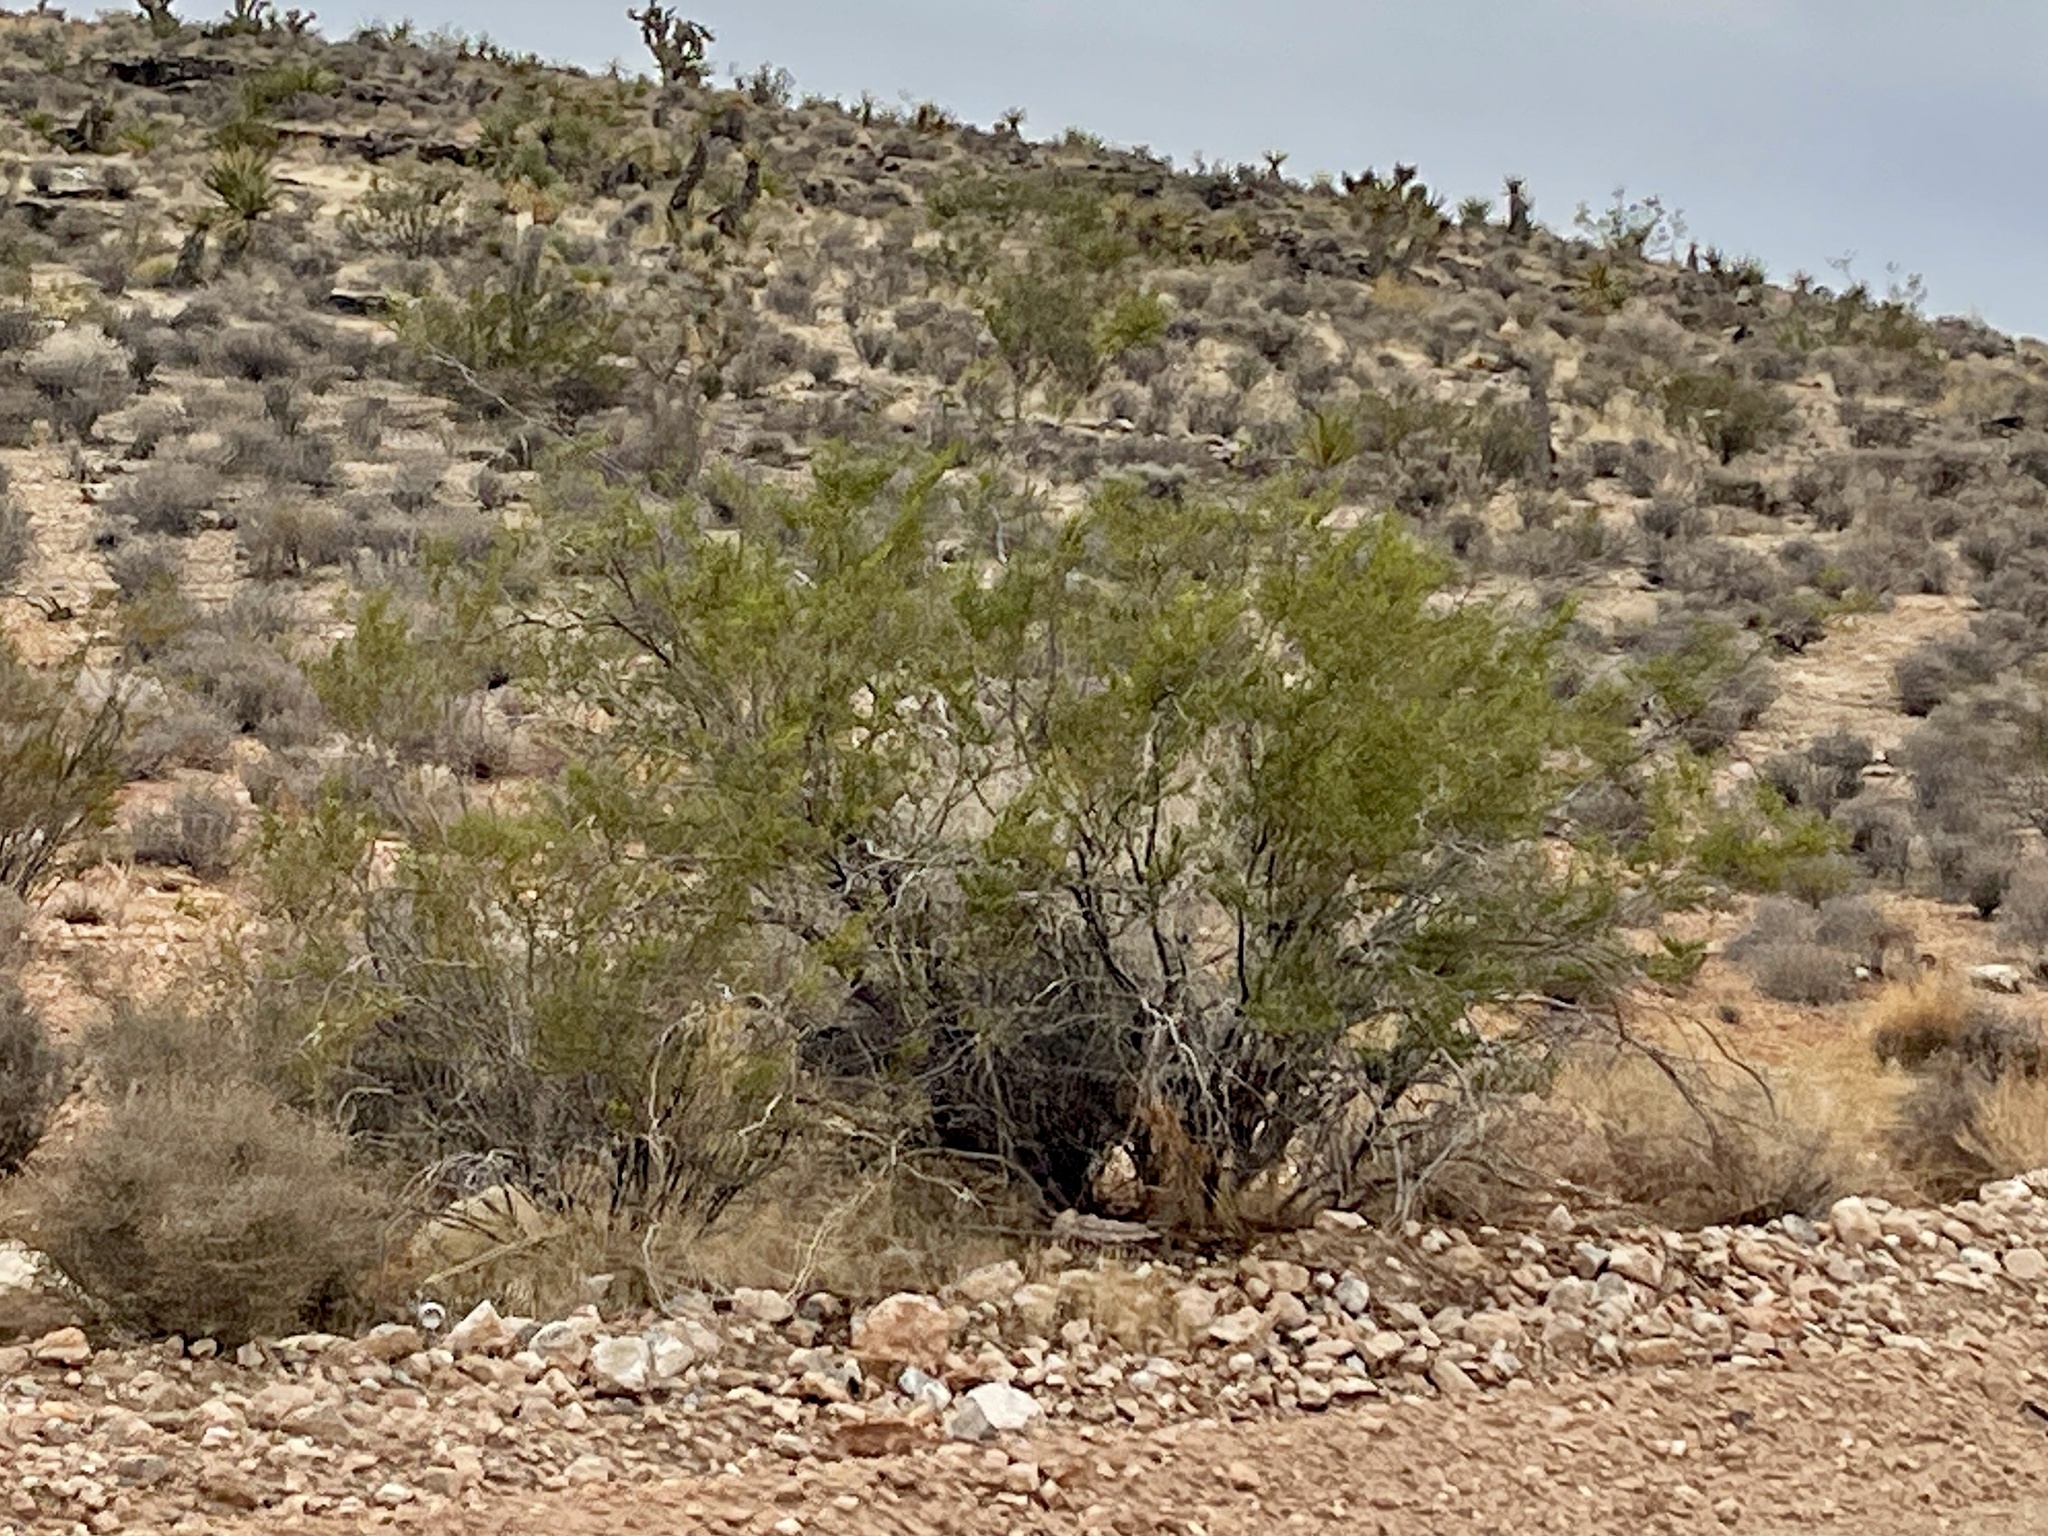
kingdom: Plantae
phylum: Tracheophyta
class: Magnoliopsida
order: Zygophyllales
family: Zygophyllaceae
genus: Larrea
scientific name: Larrea tridentata
